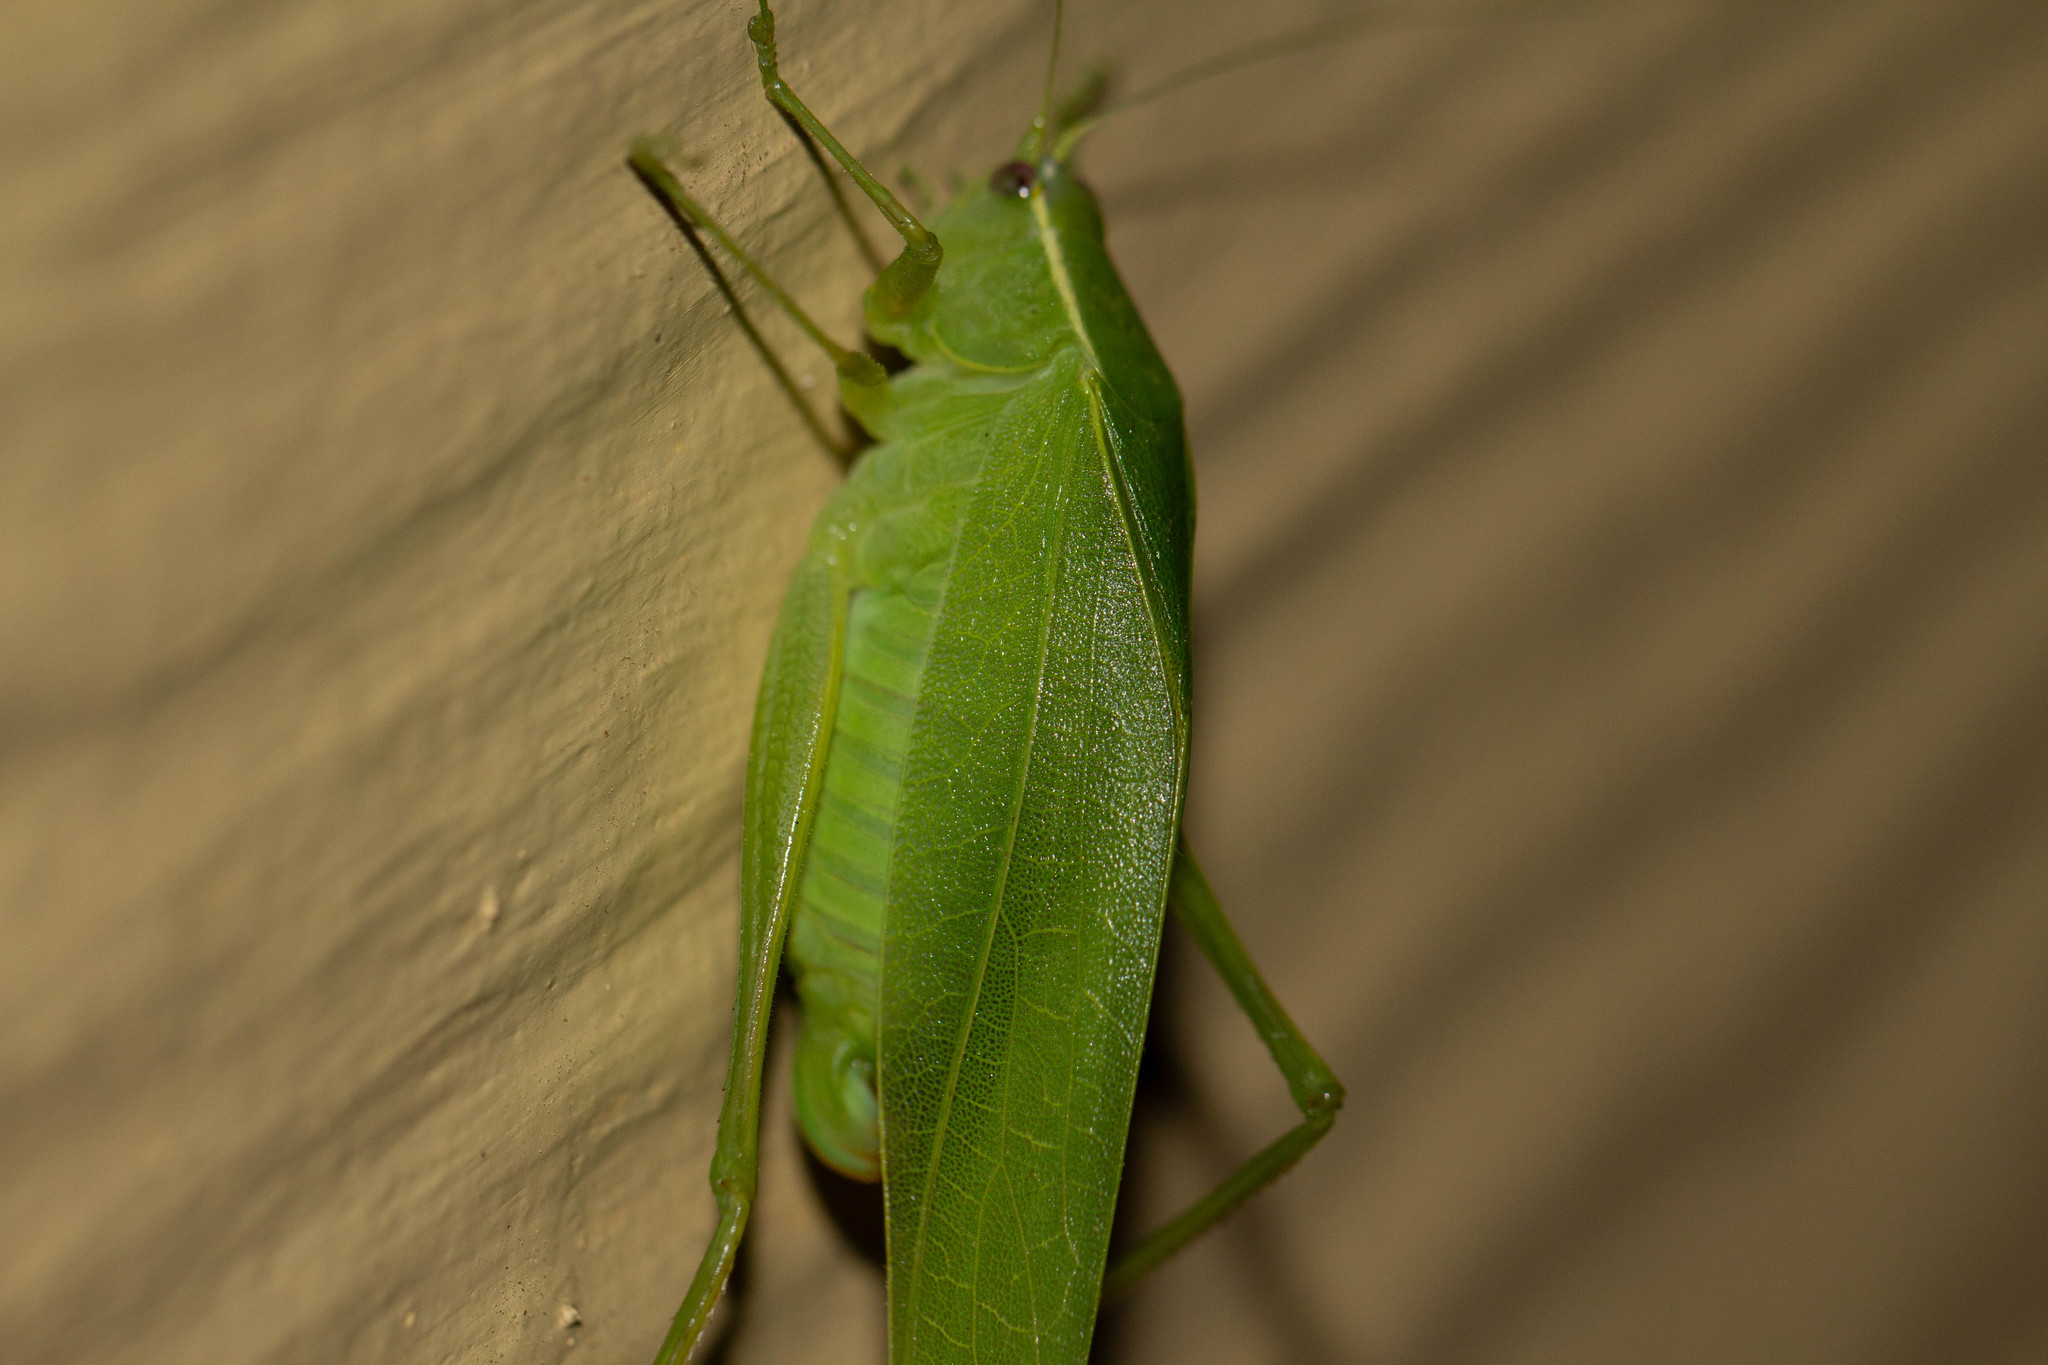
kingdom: Animalia
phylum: Arthropoda
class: Insecta
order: Orthoptera
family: Tettigoniidae
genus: Turpiliodes
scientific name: Turpiliodes mexicanum
